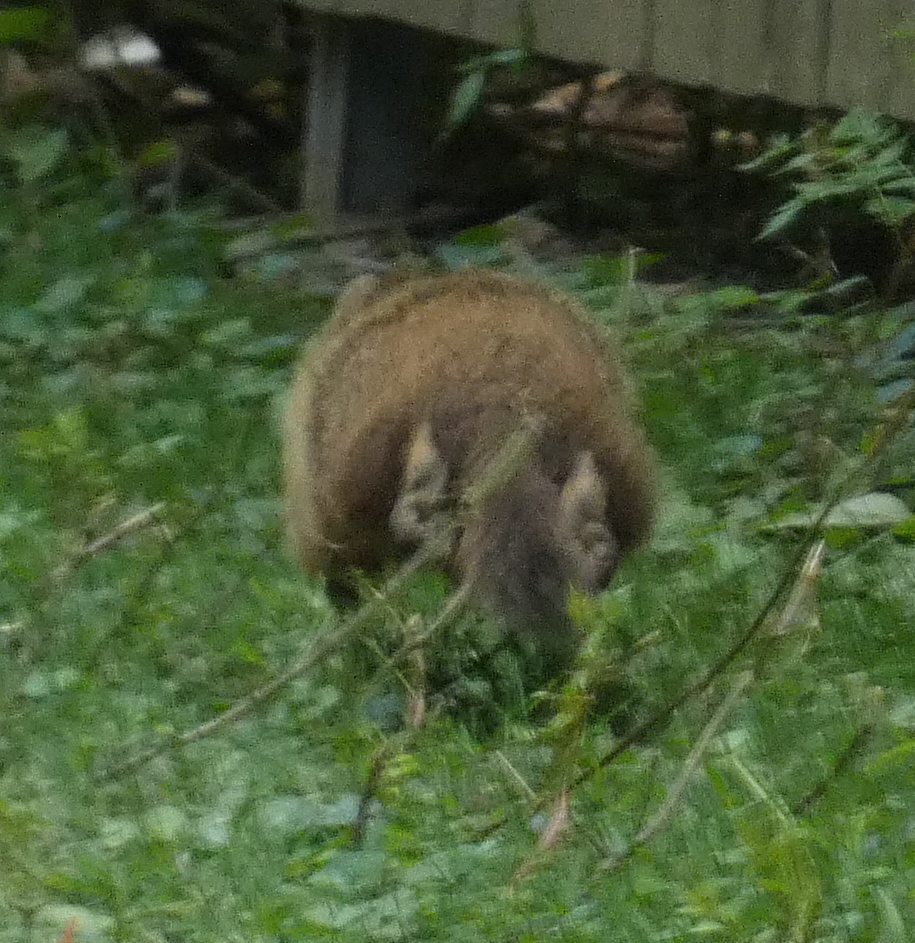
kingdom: Animalia
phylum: Chordata
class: Mammalia
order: Rodentia
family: Sciuridae
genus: Marmota
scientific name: Marmota monax
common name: Groundhog
